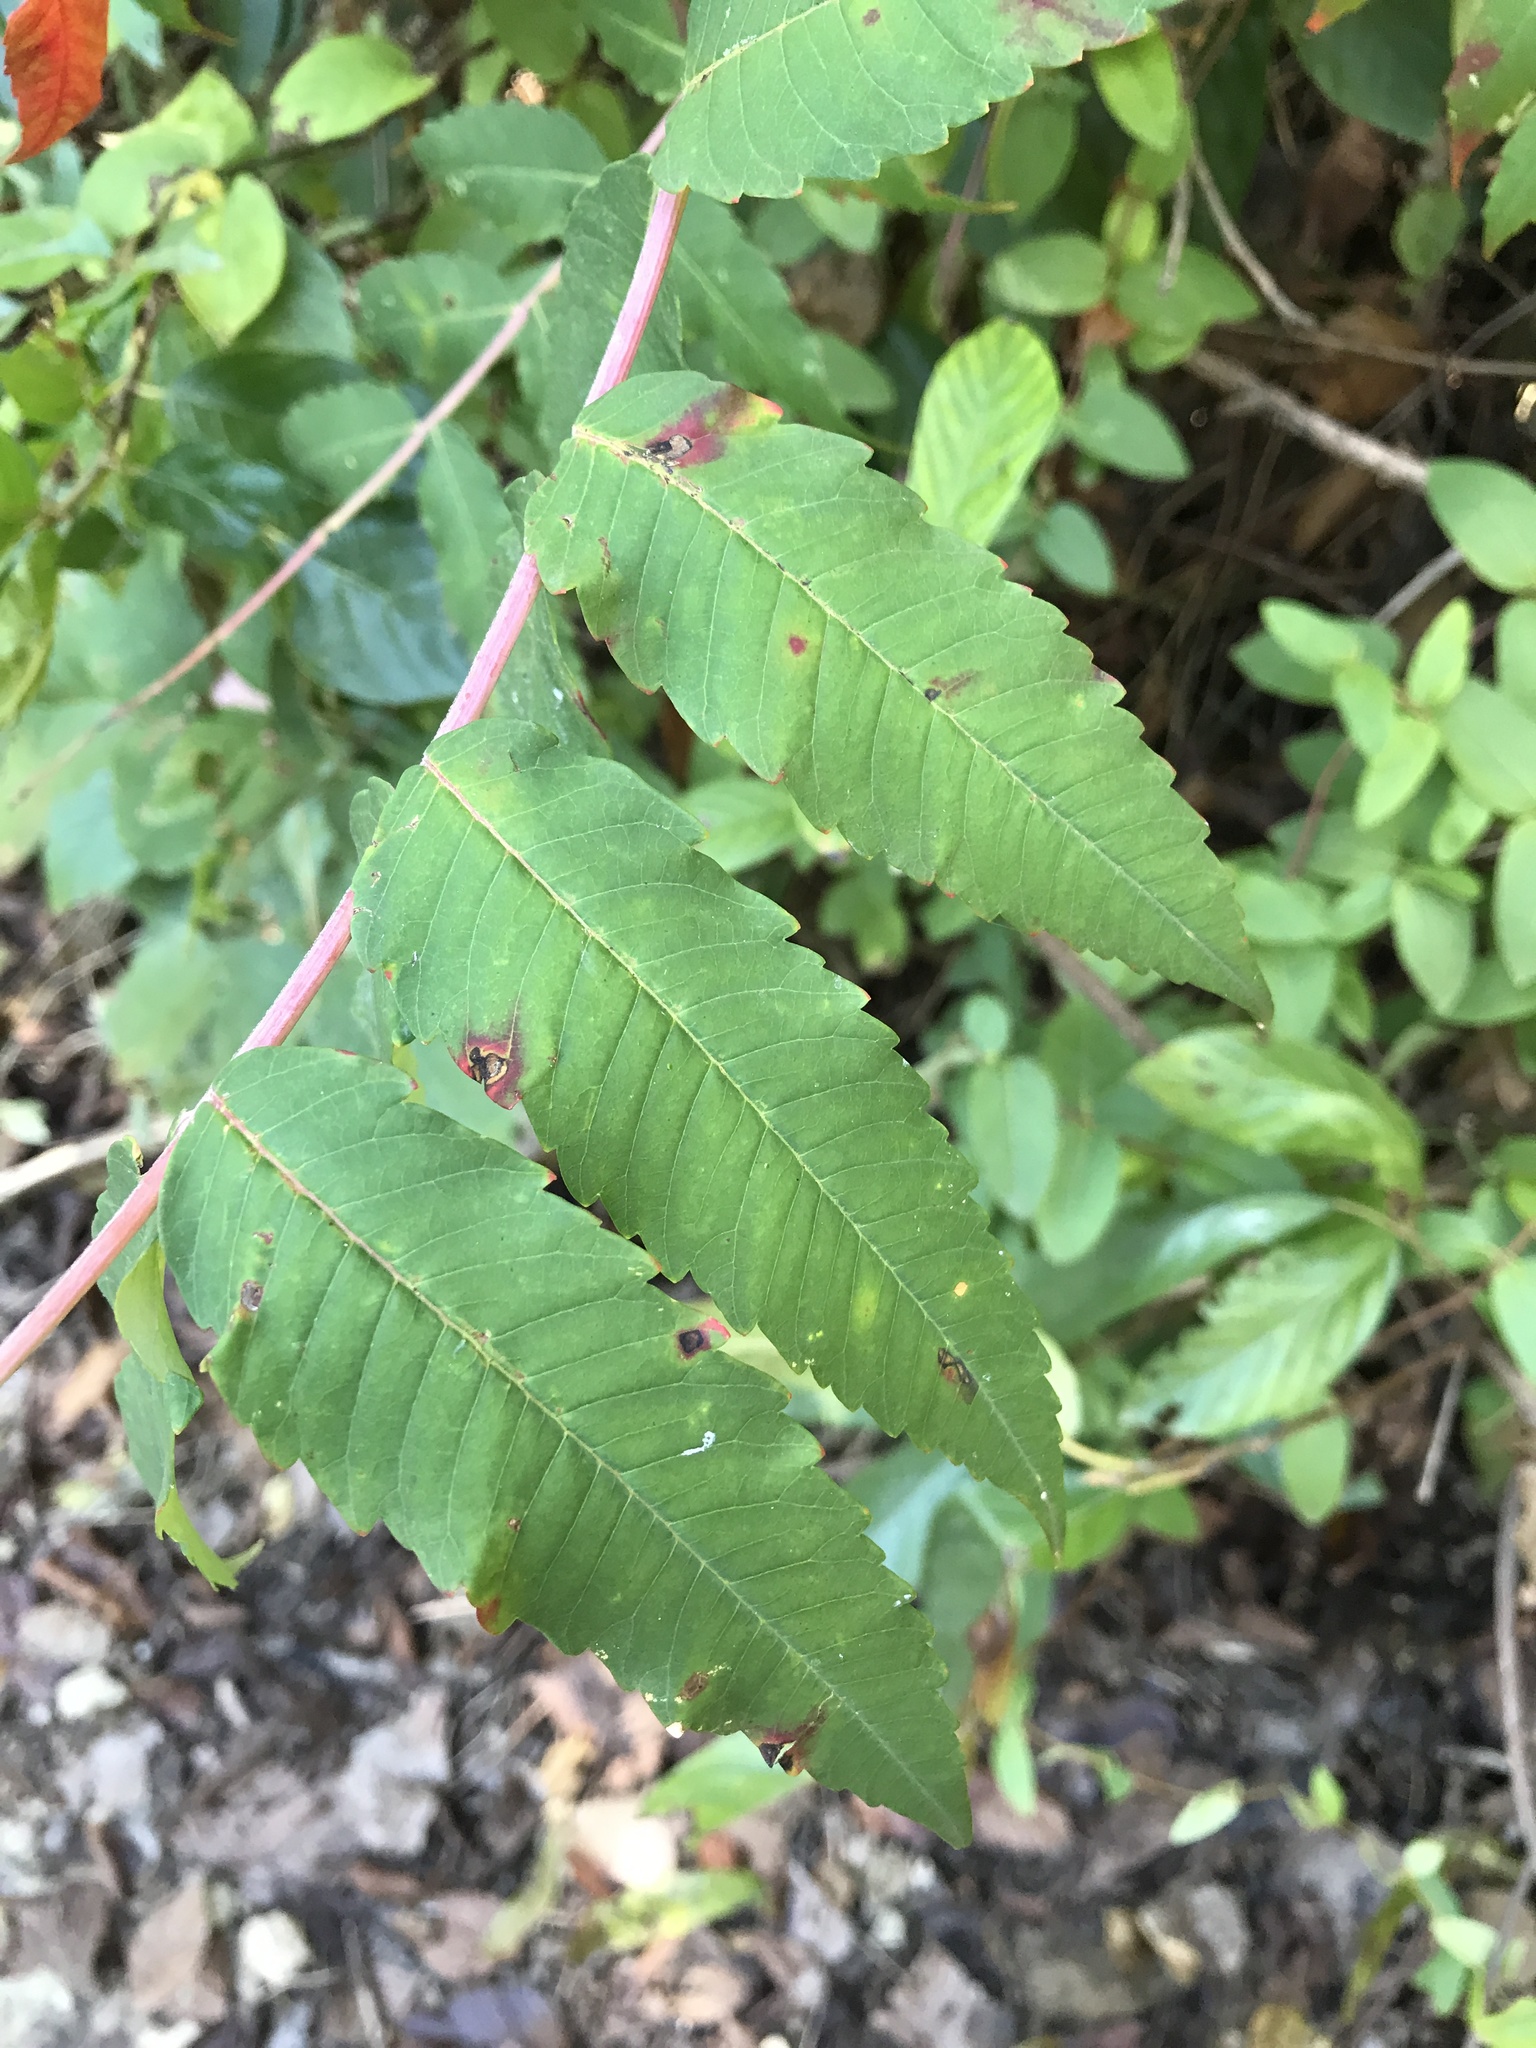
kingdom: Plantae
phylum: Tracheophyta
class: Magnoliopsida
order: Sapindales
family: Anacardiaceae
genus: Rhus
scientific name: Rhus glabra
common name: Scarlet sumac
